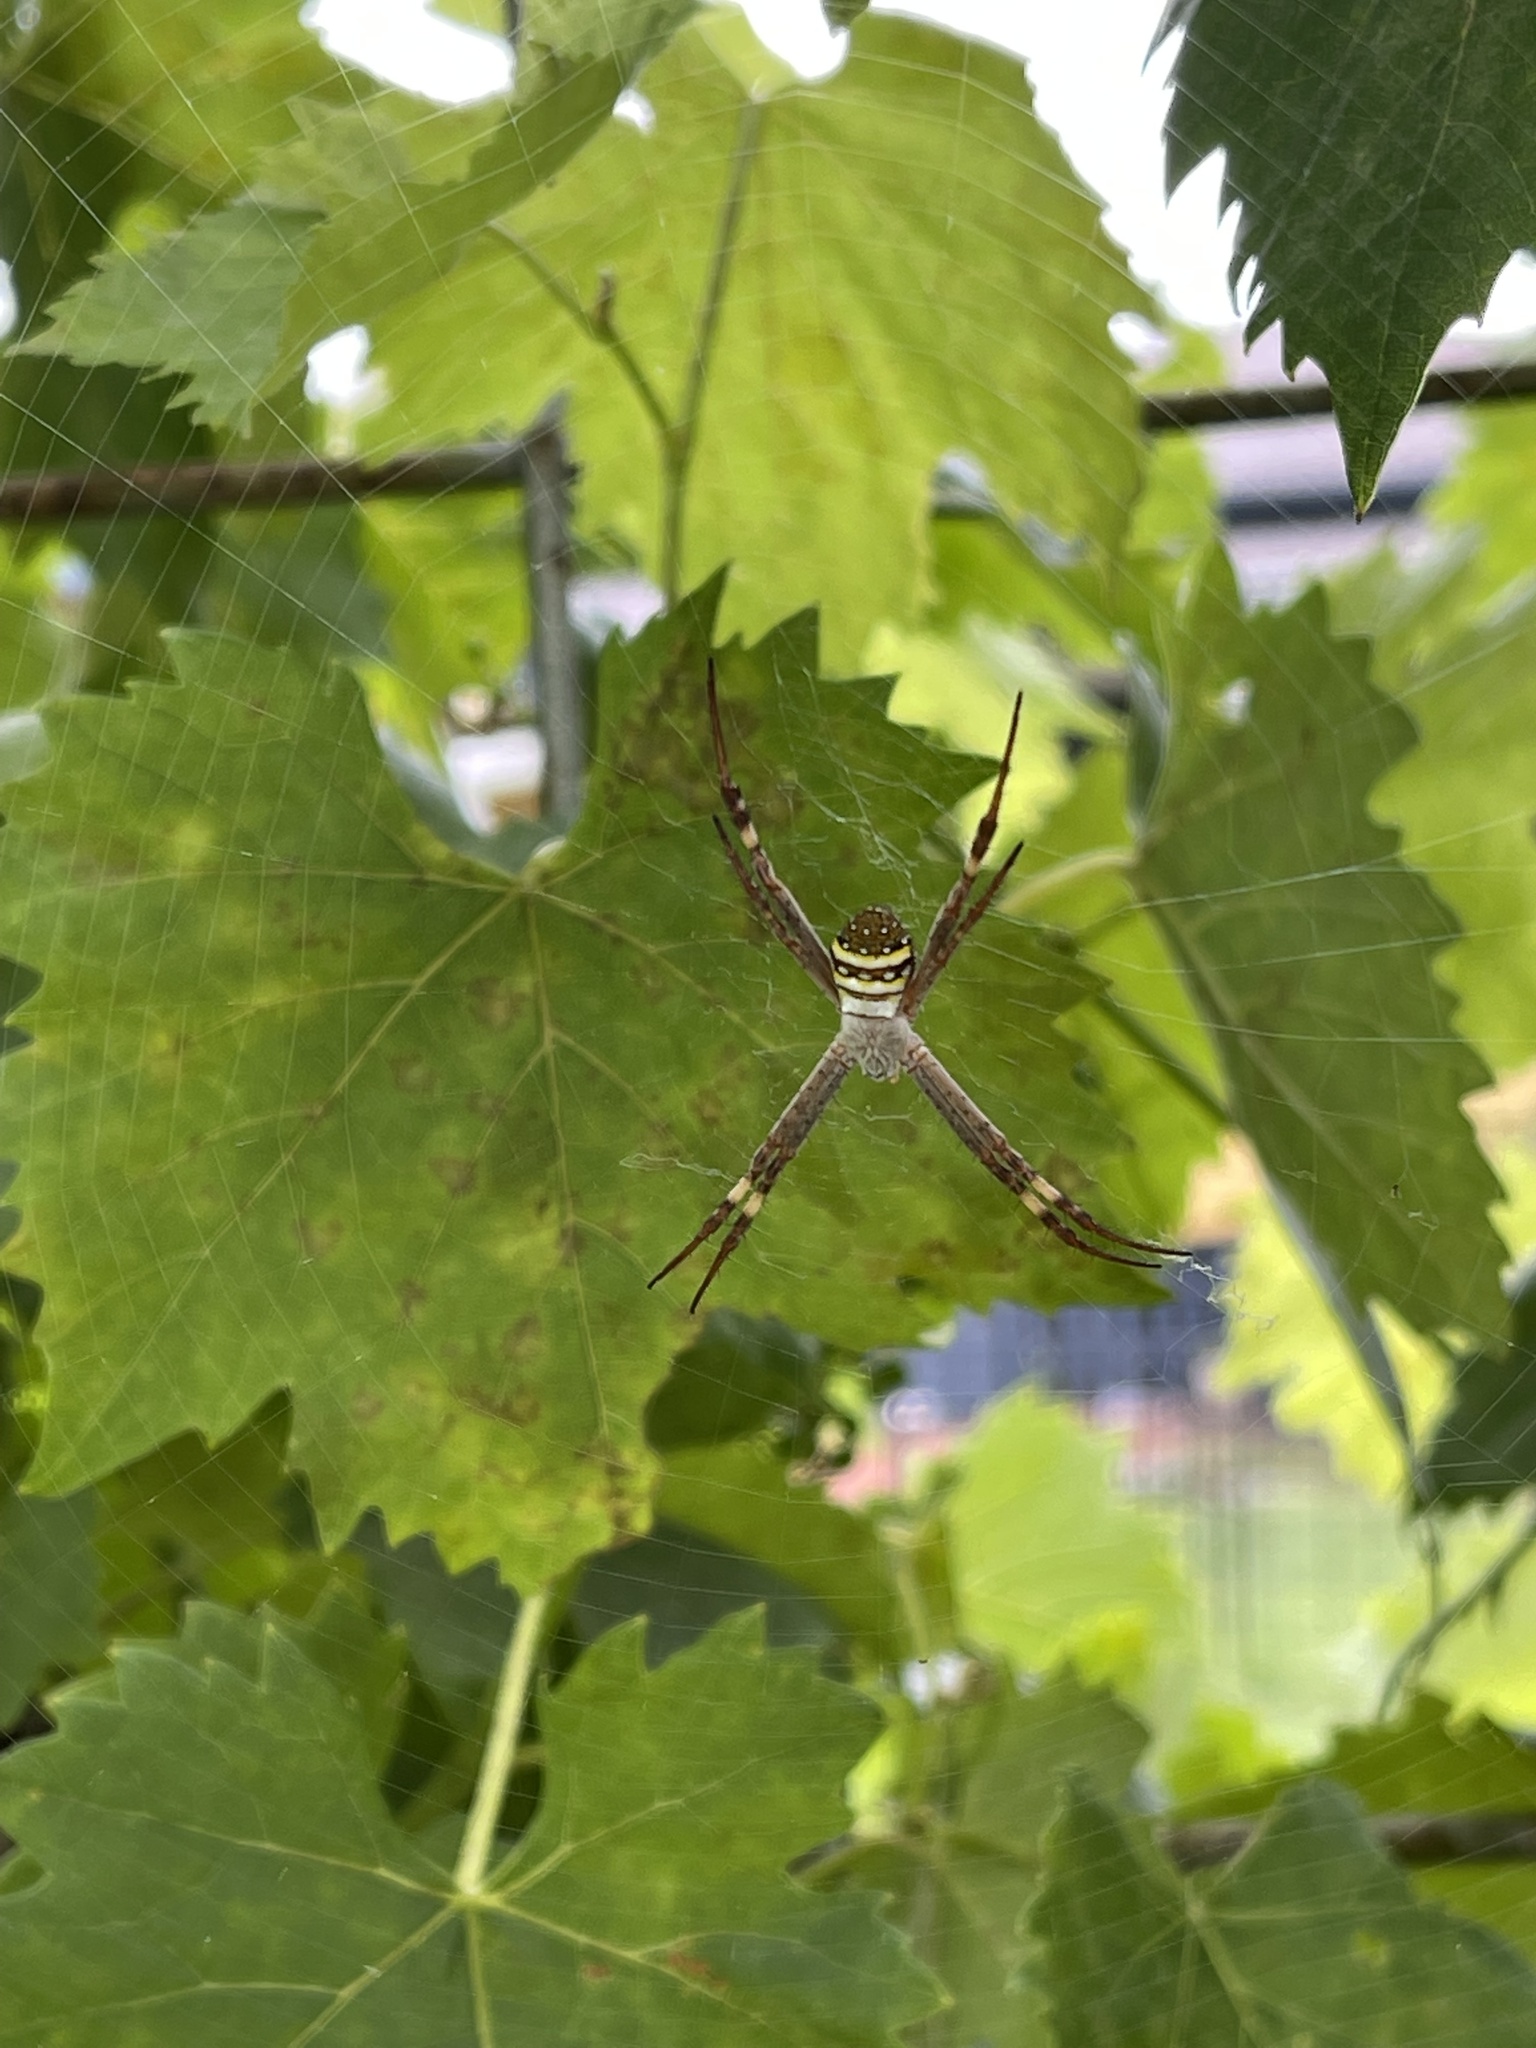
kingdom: Animalia
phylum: Arthropoda
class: Arachnida
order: Araneae
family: Araneidae
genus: Argiope
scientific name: Argiope keyserlingi
